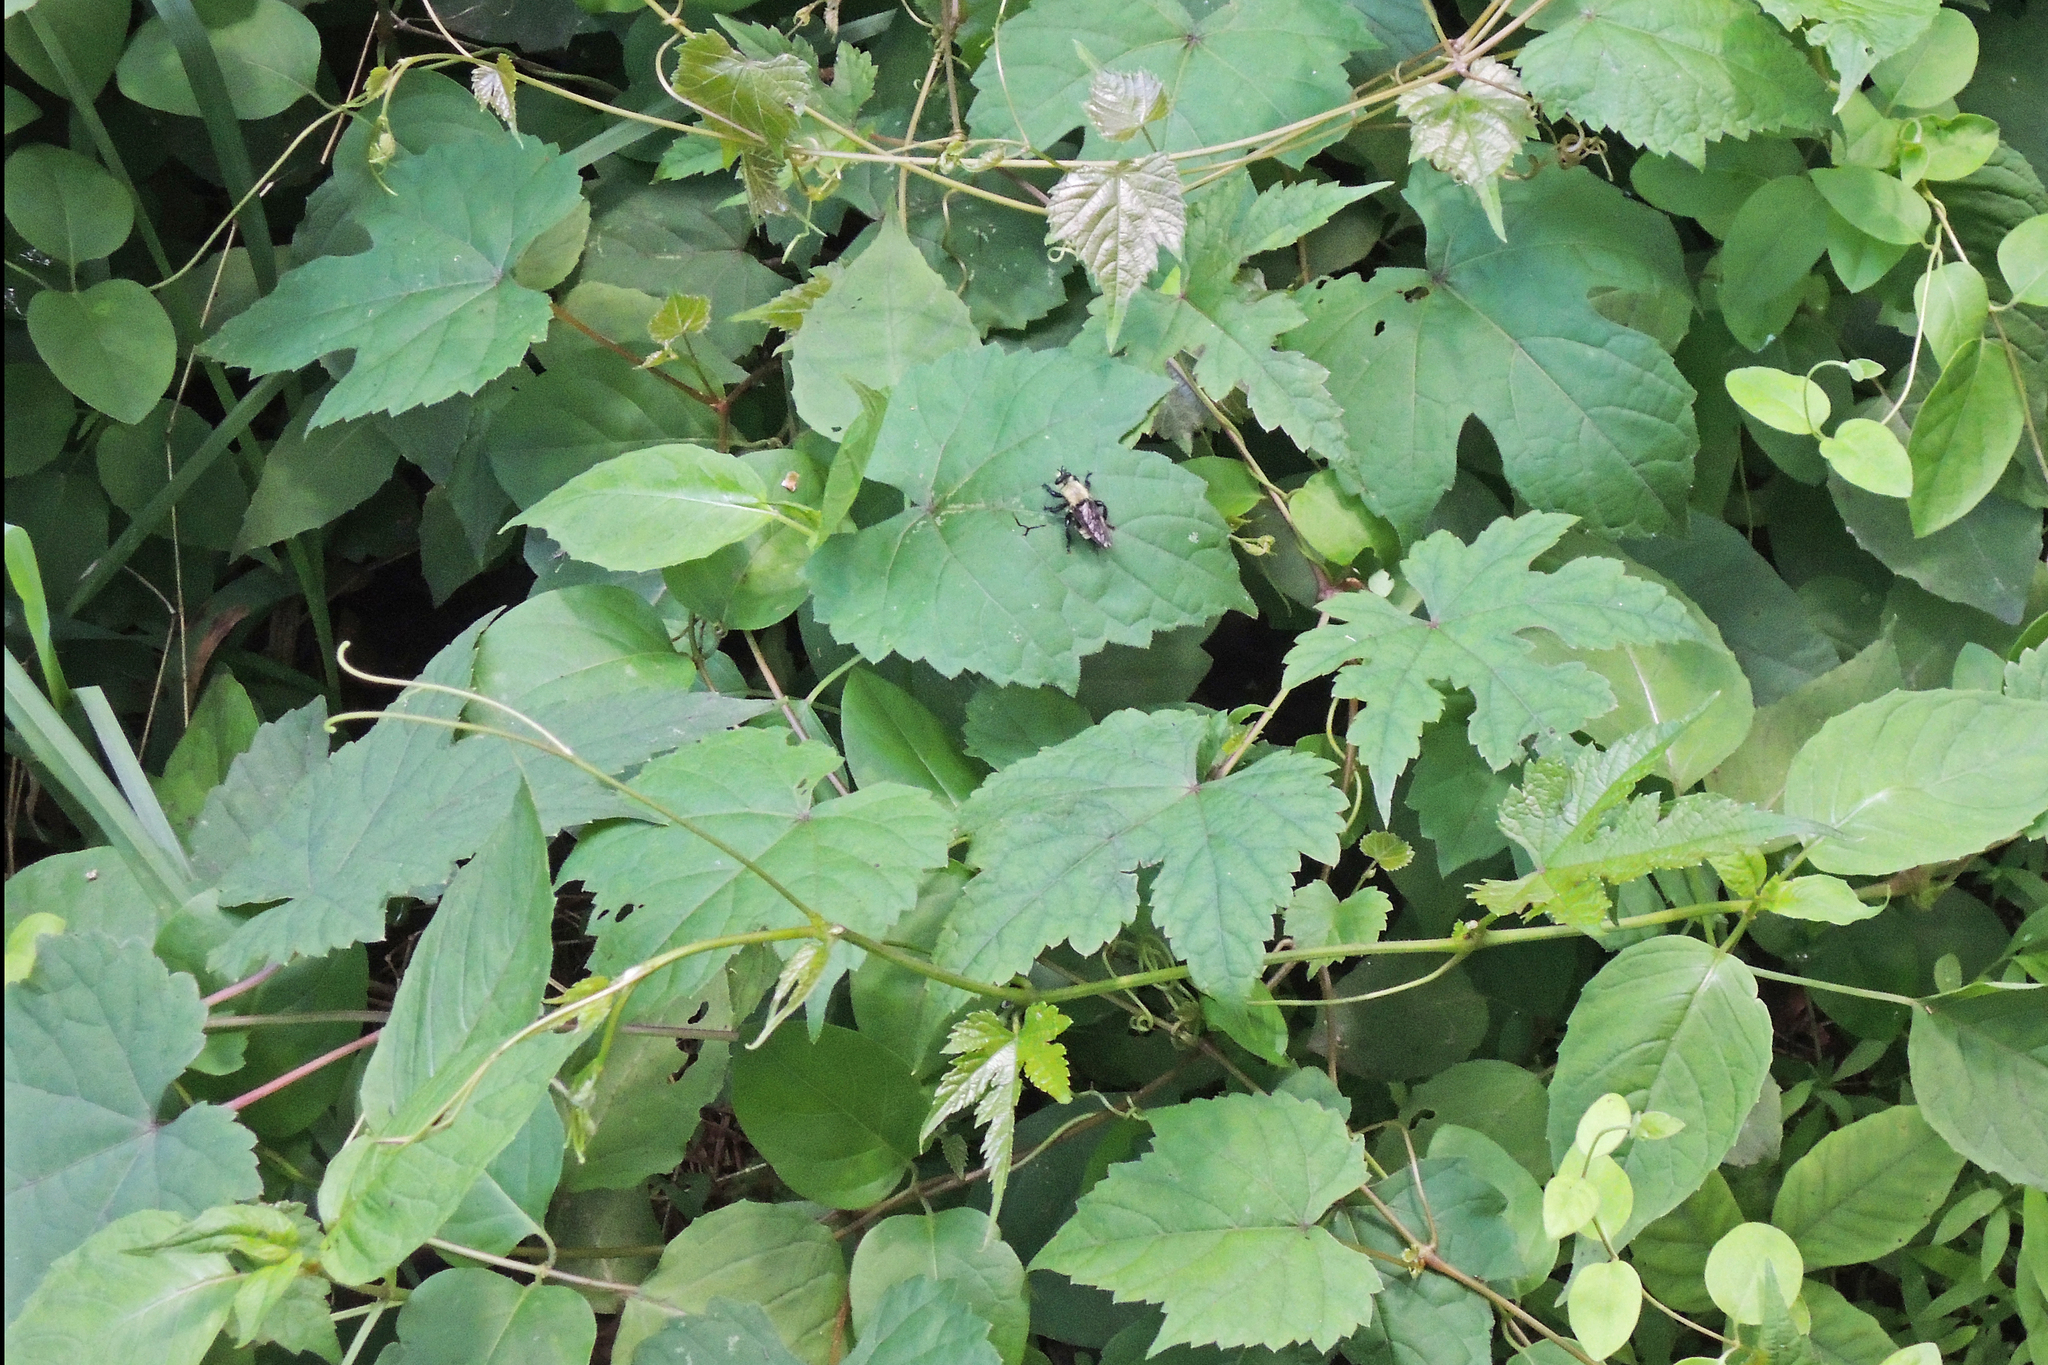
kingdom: Plantae
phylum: Tracheophyta
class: Magnoliopsida
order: Vitales
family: Vitaceae
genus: Ampelopsis
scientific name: Ampelopsis glandulosa
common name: Amur peppervine
